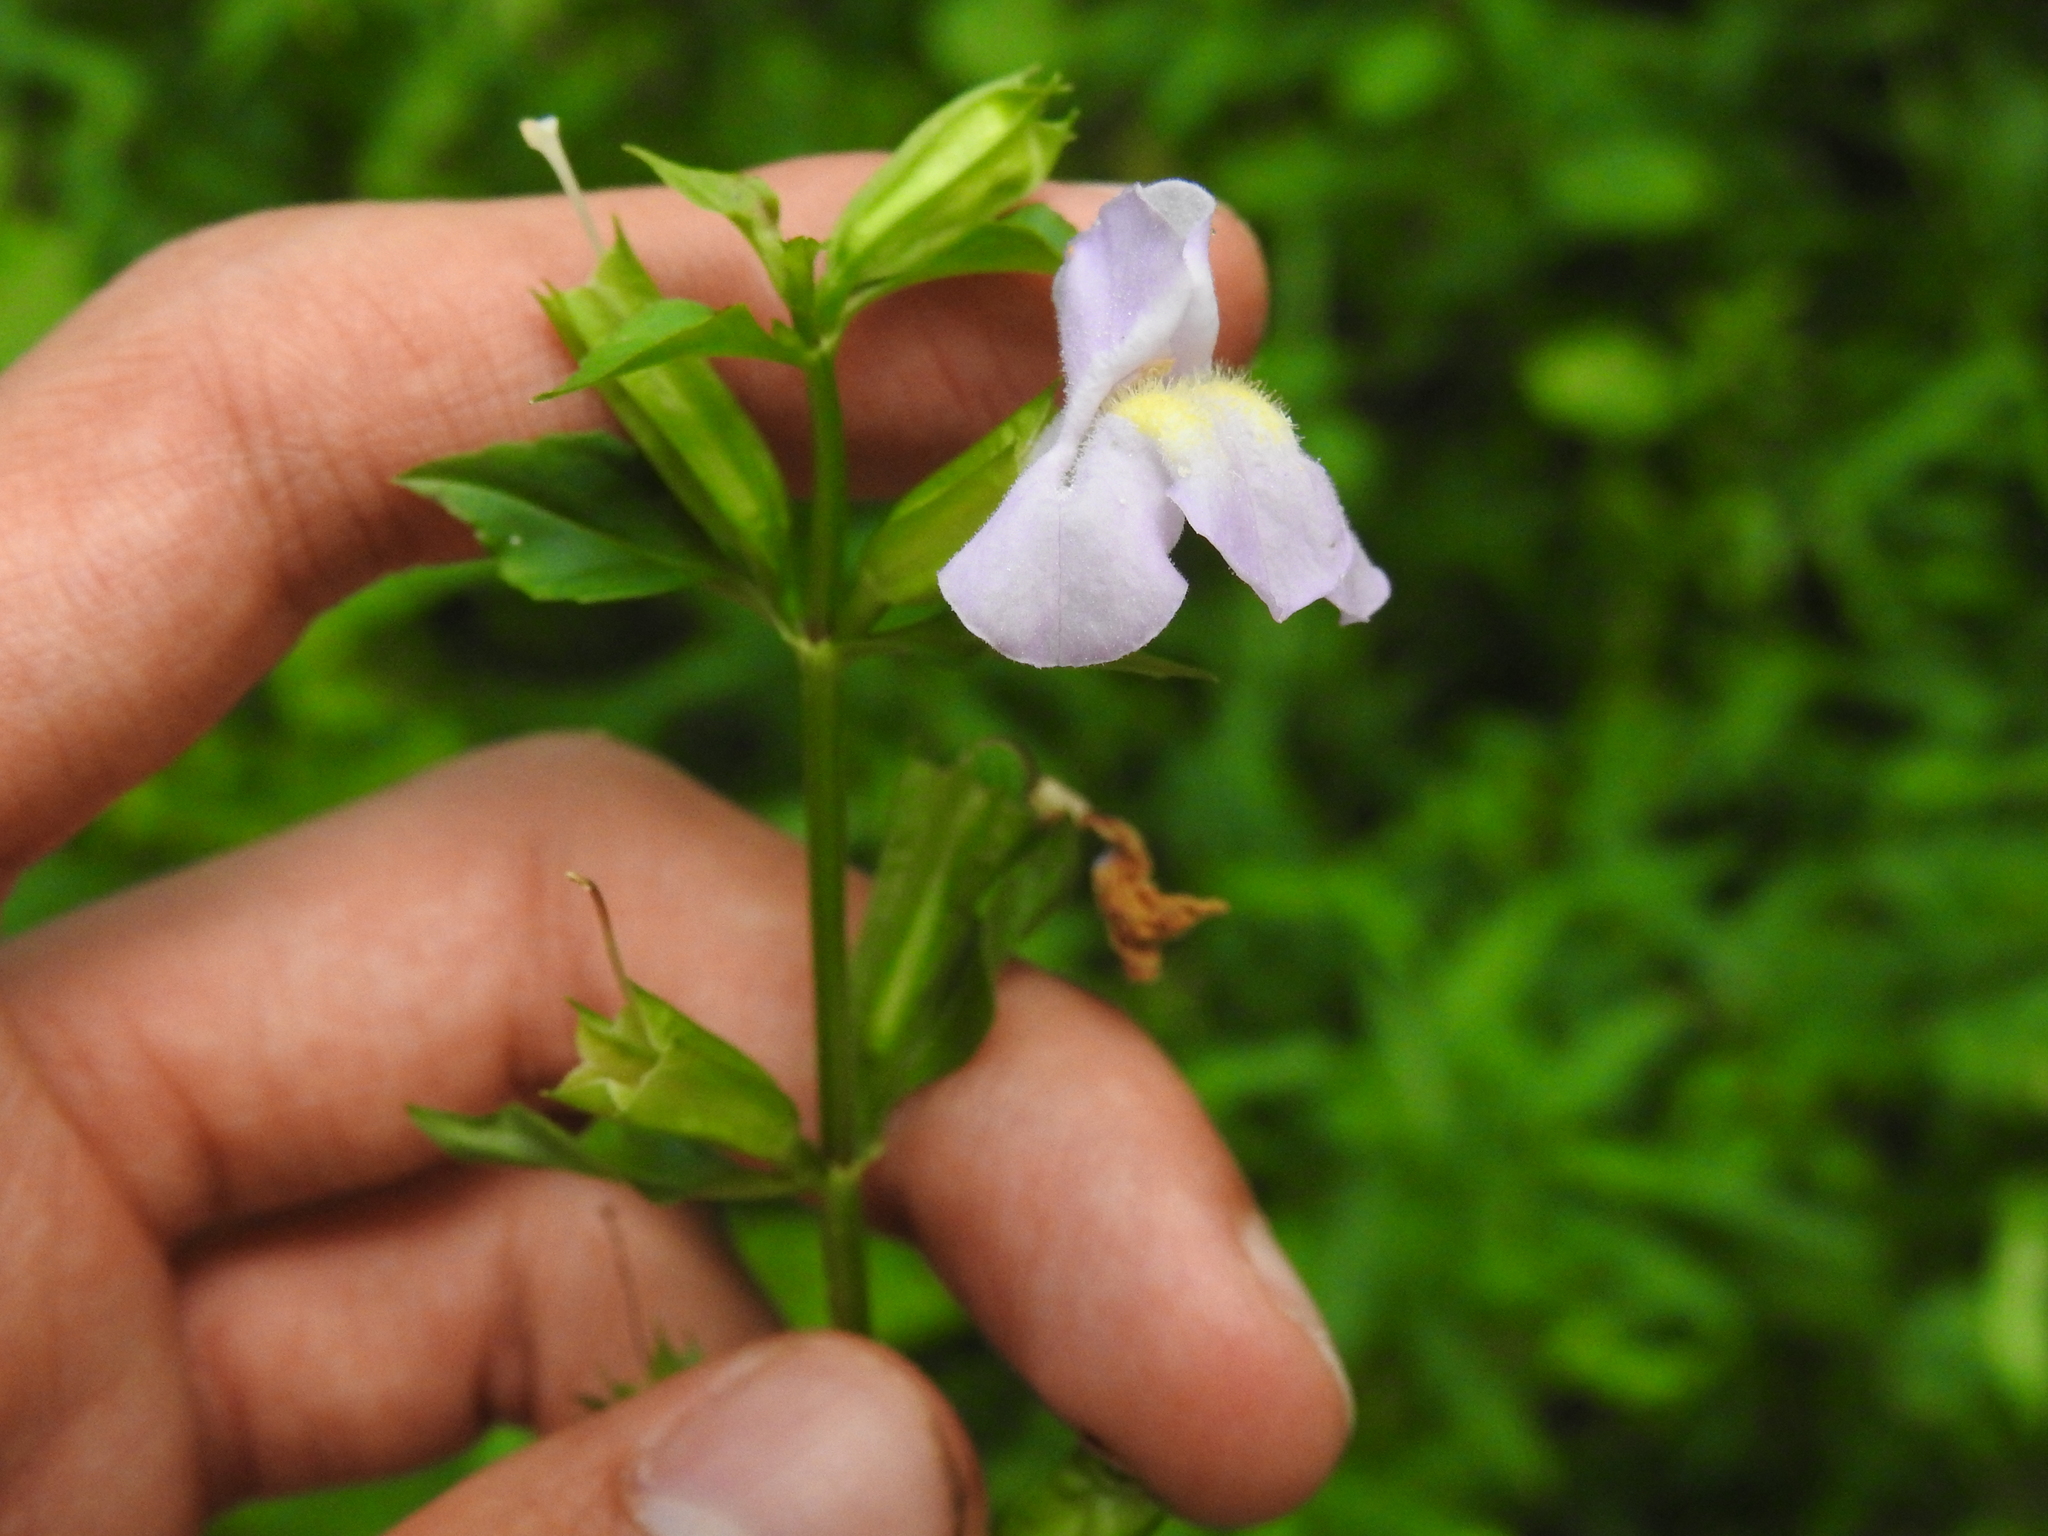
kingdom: Plantae
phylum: Tracheophyta
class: Magnoliopsida
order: Lamiales
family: Phrymaceae
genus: Mimulus
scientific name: Mimulus alatus
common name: Sharp-wing monkey-flower
